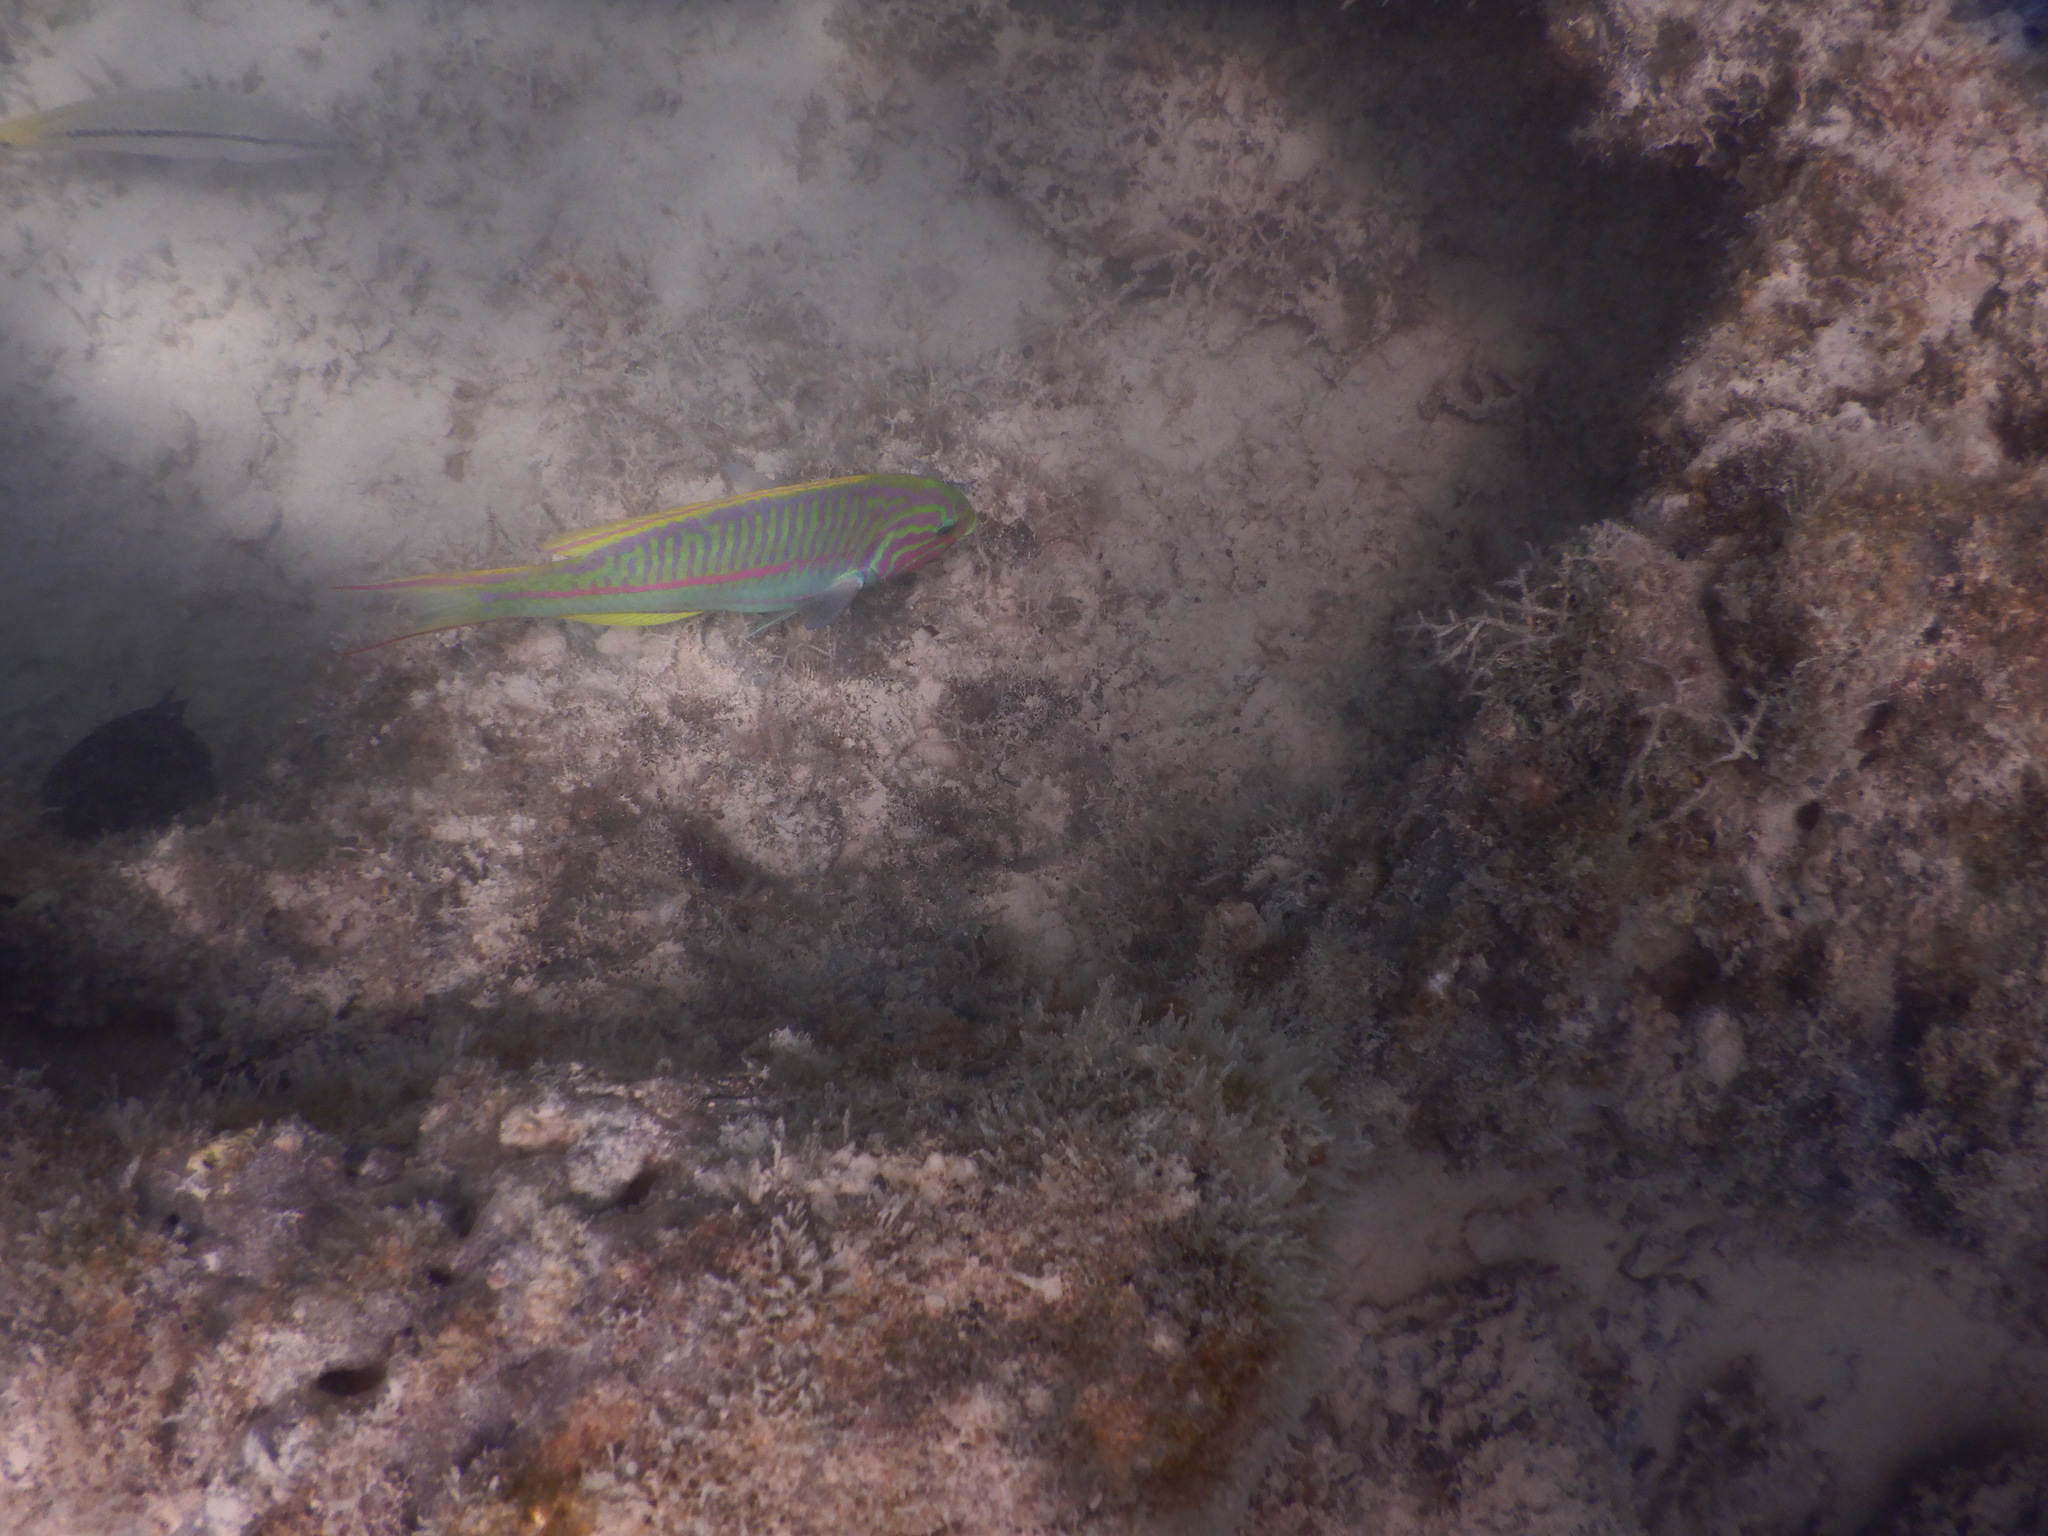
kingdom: Animalia
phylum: Chordata
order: Perciformes
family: Labridae
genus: Thalassoma
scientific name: Thalassoma rueppellii
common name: Klunzinger's wrasse
